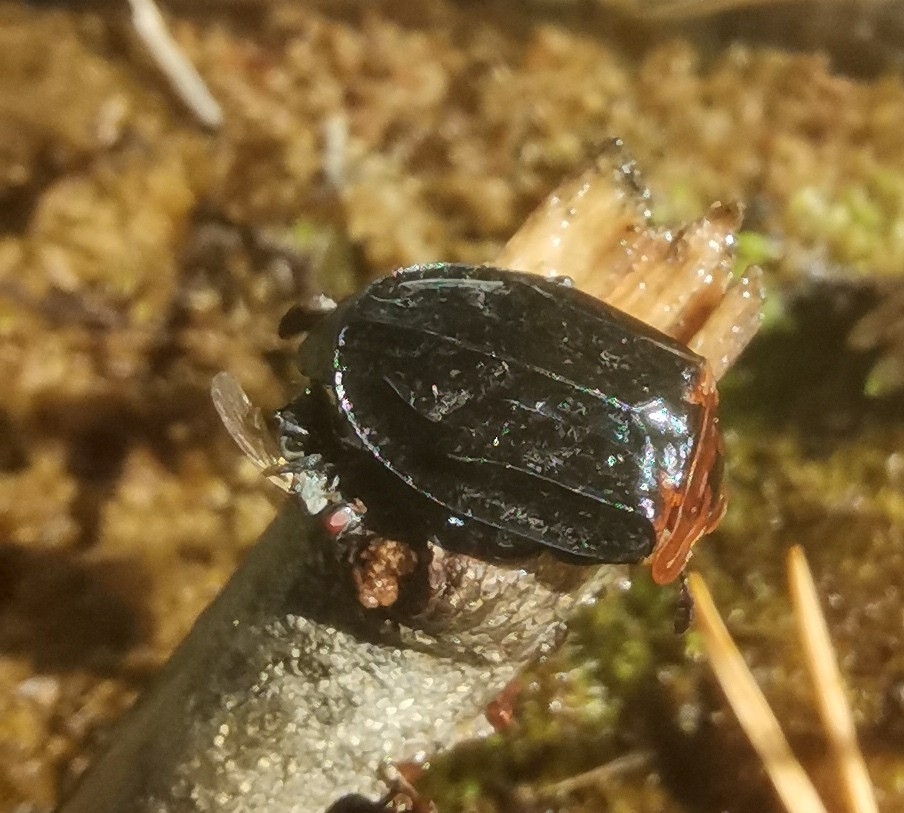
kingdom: Animalia
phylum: Arthropoda
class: Insecta
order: Coleoptera
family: Staphylinidae
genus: Oiceoptoma
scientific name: Oiceoptoma thoracicum
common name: Red-breasted carrion beetle
